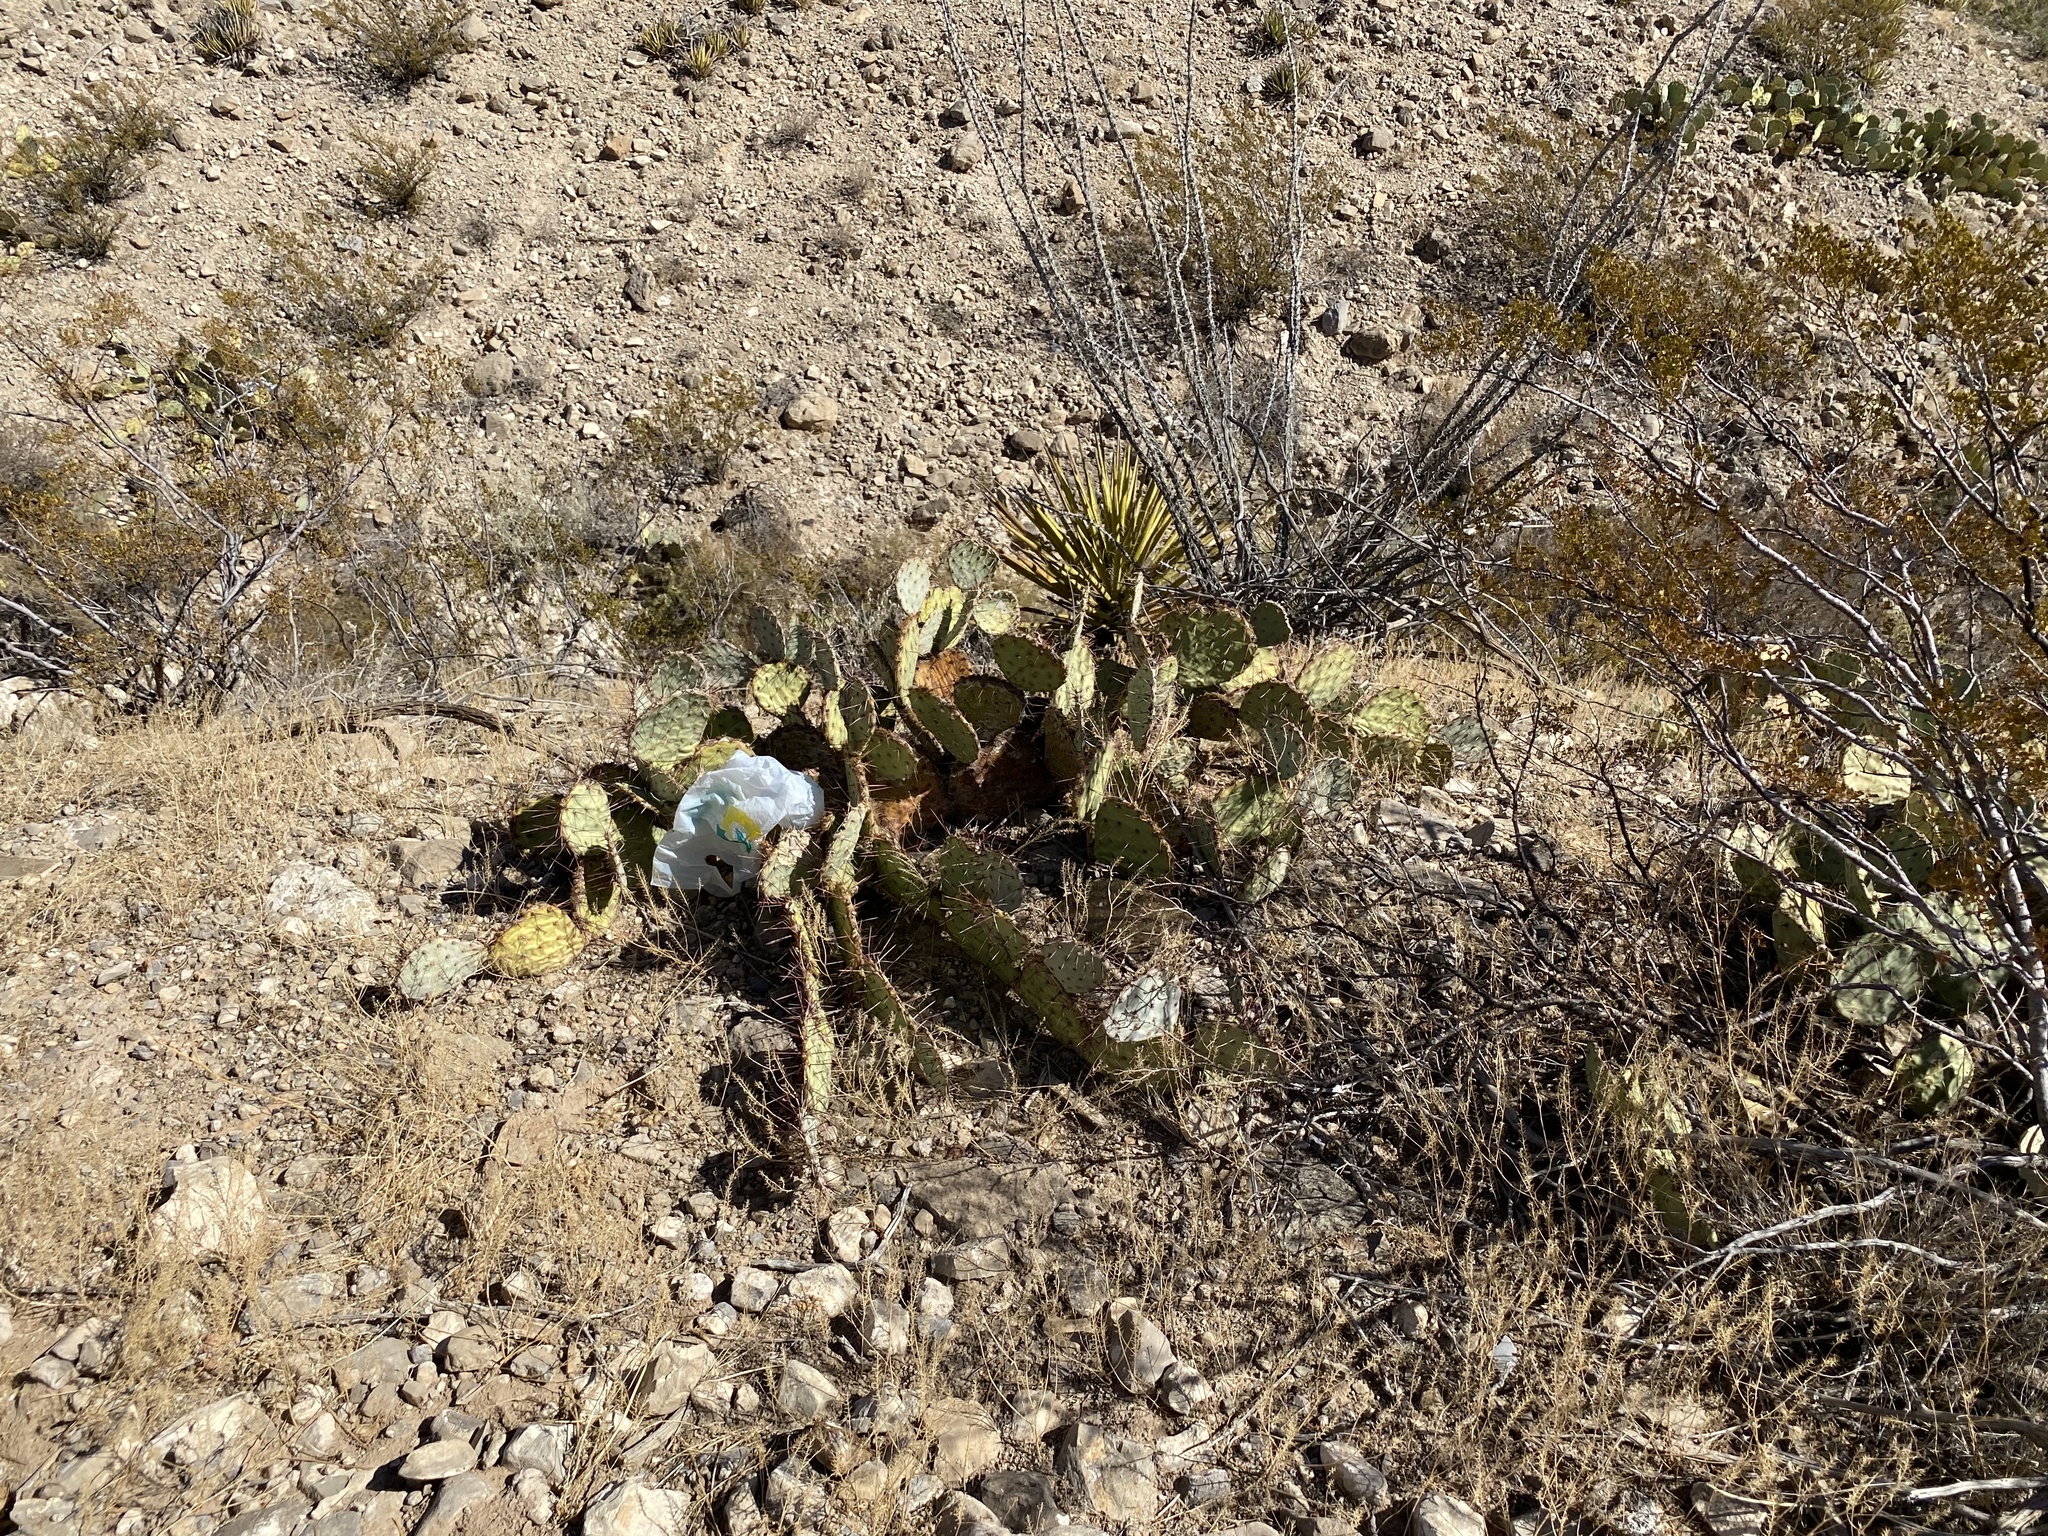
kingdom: Plantae
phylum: Tracheophyta
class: Magnoliopsida
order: Caryophyllales
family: Cactaceae
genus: Opuntia
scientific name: Opuntia phaeacantha
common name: New mexico prickly-pear
